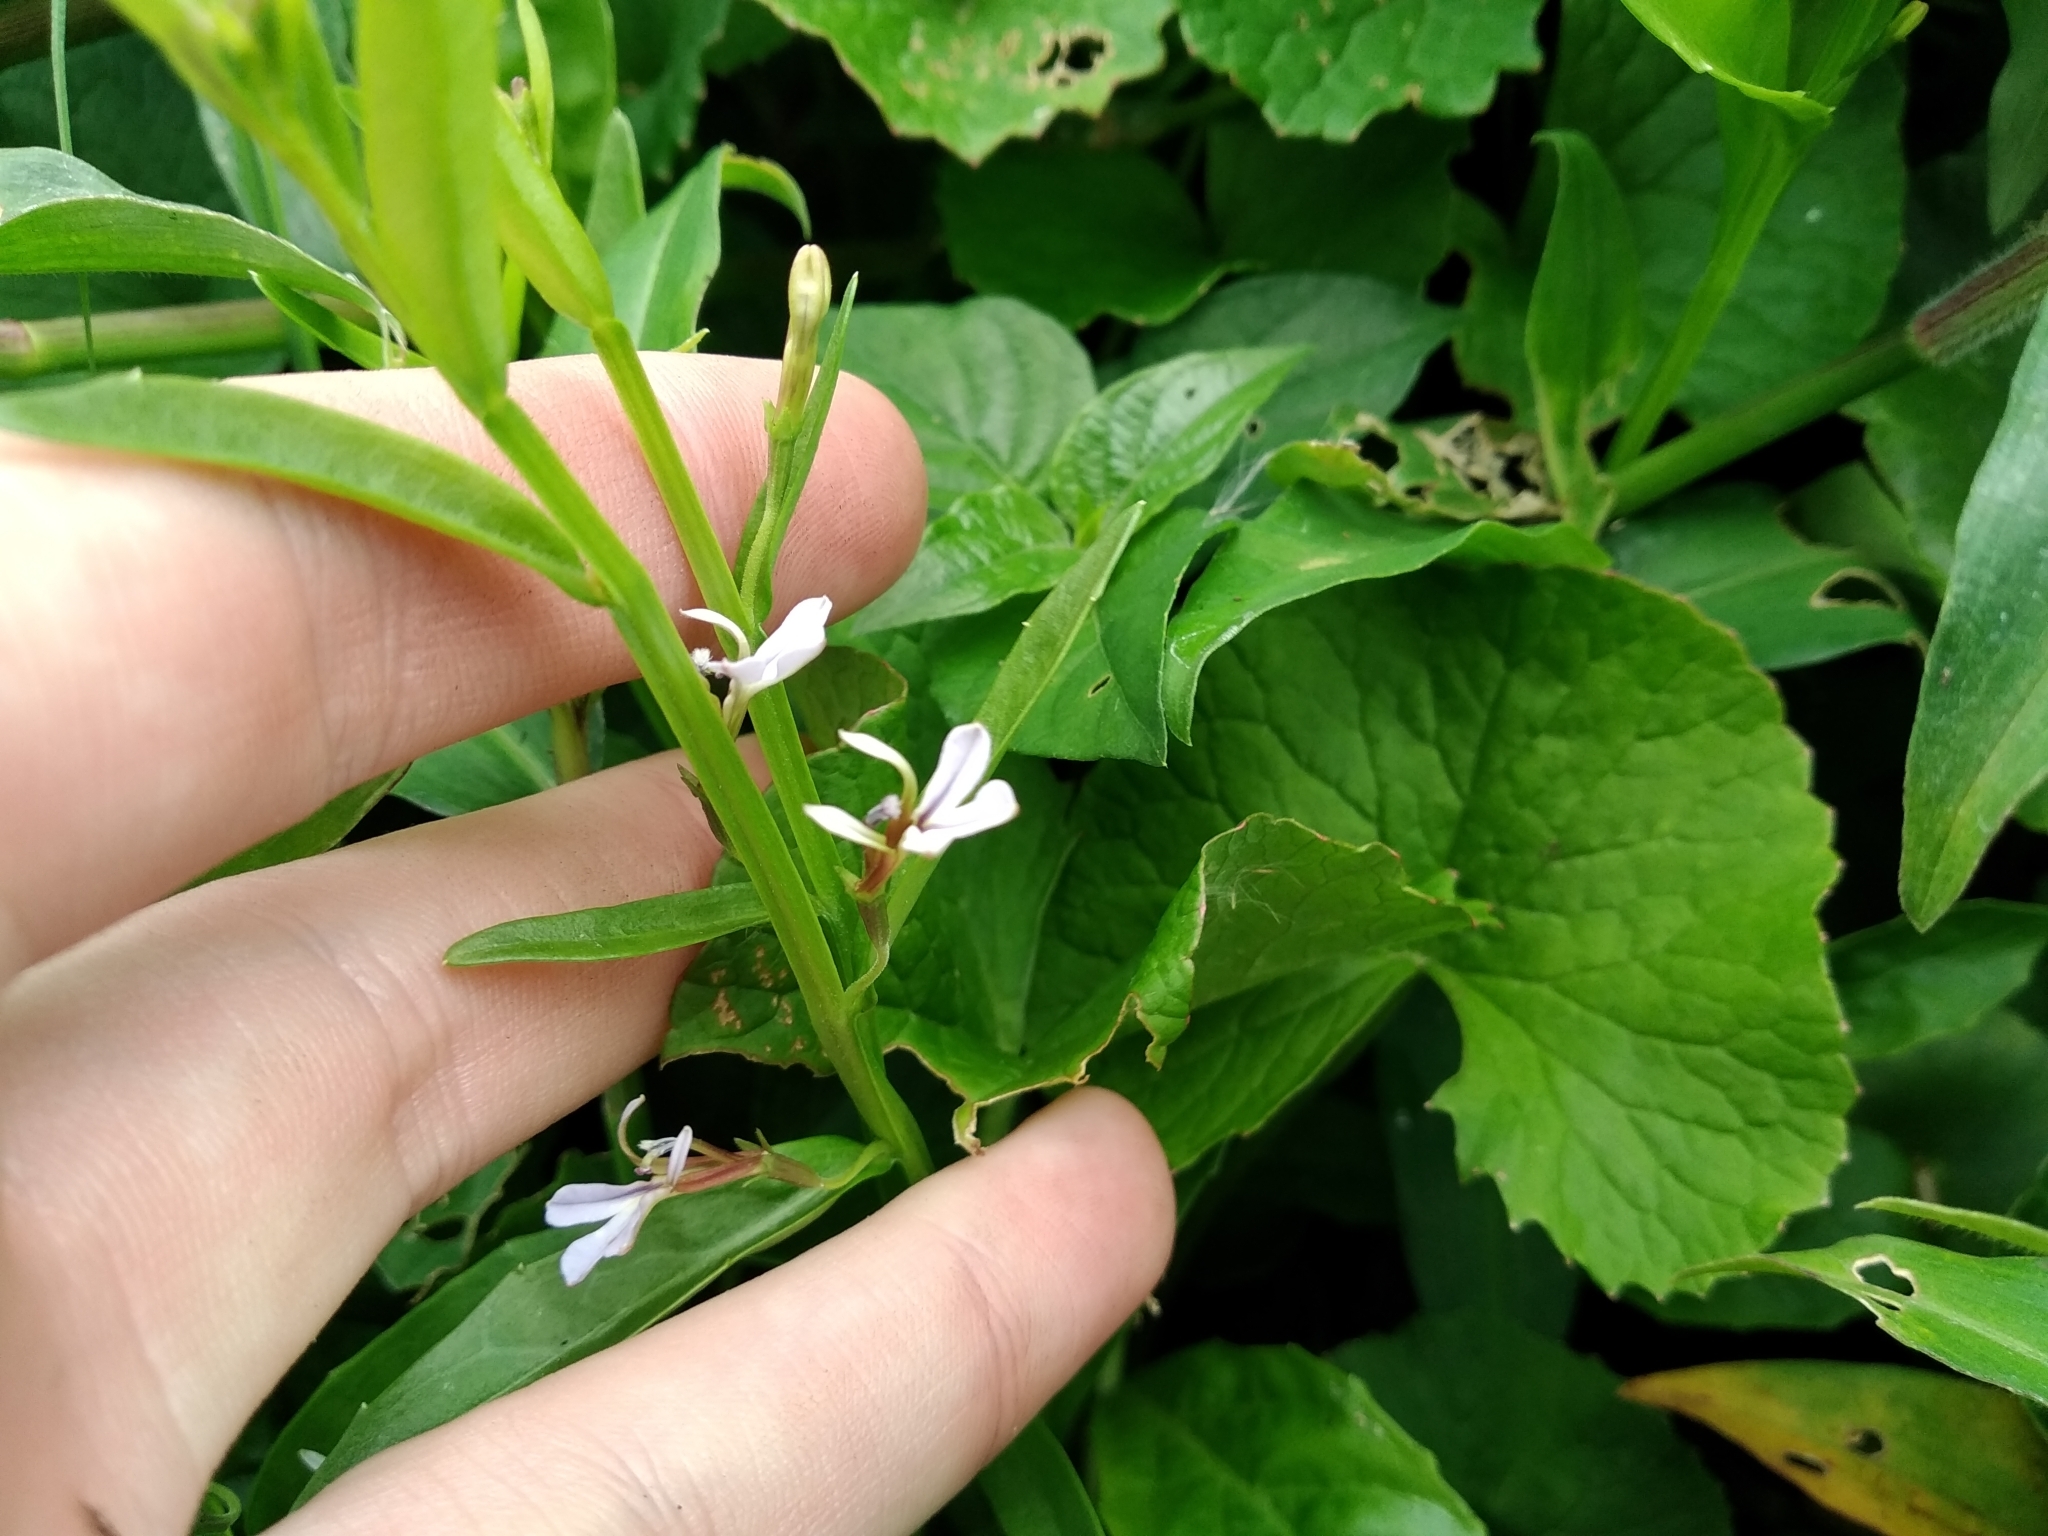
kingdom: Plantae
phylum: Tracheophyta
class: Magnoliopsida
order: Asterales
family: Campanulaceae
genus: Lobelia
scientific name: Lobelia anceps
